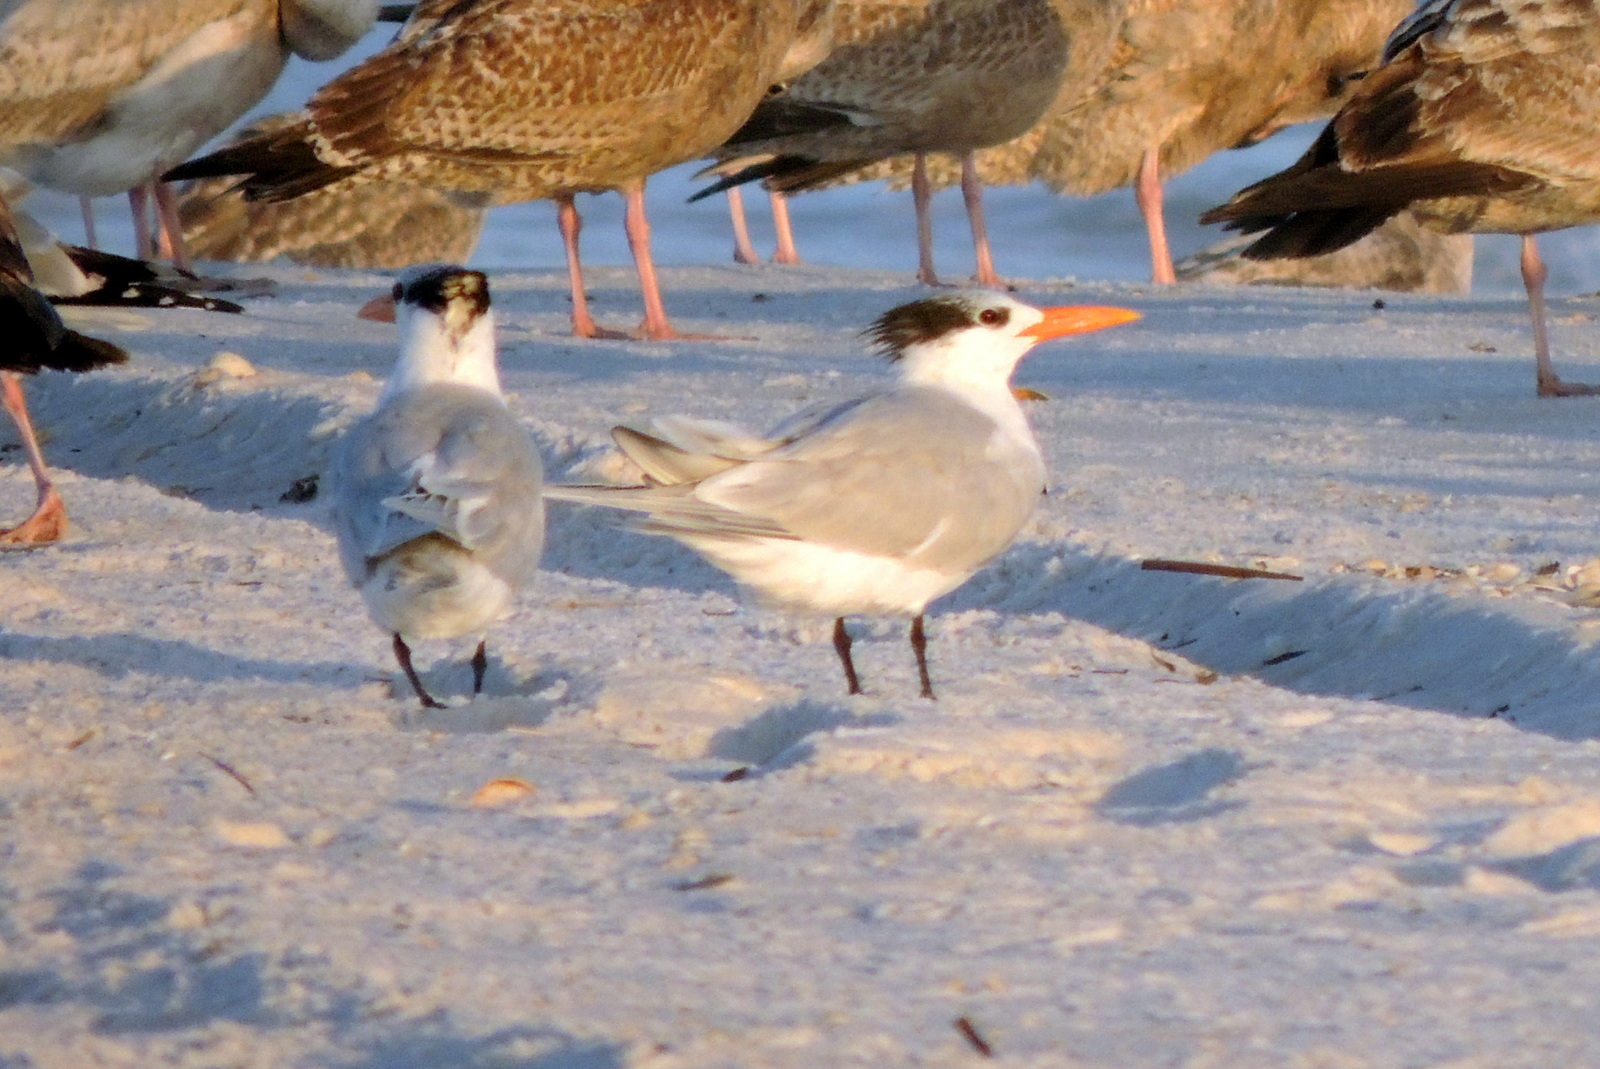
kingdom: Animalia
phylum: Chordata
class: Aves
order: Charadriiformes
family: Laridae
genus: Thalasseus
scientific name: Thalasseus maximus
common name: Royal tern
